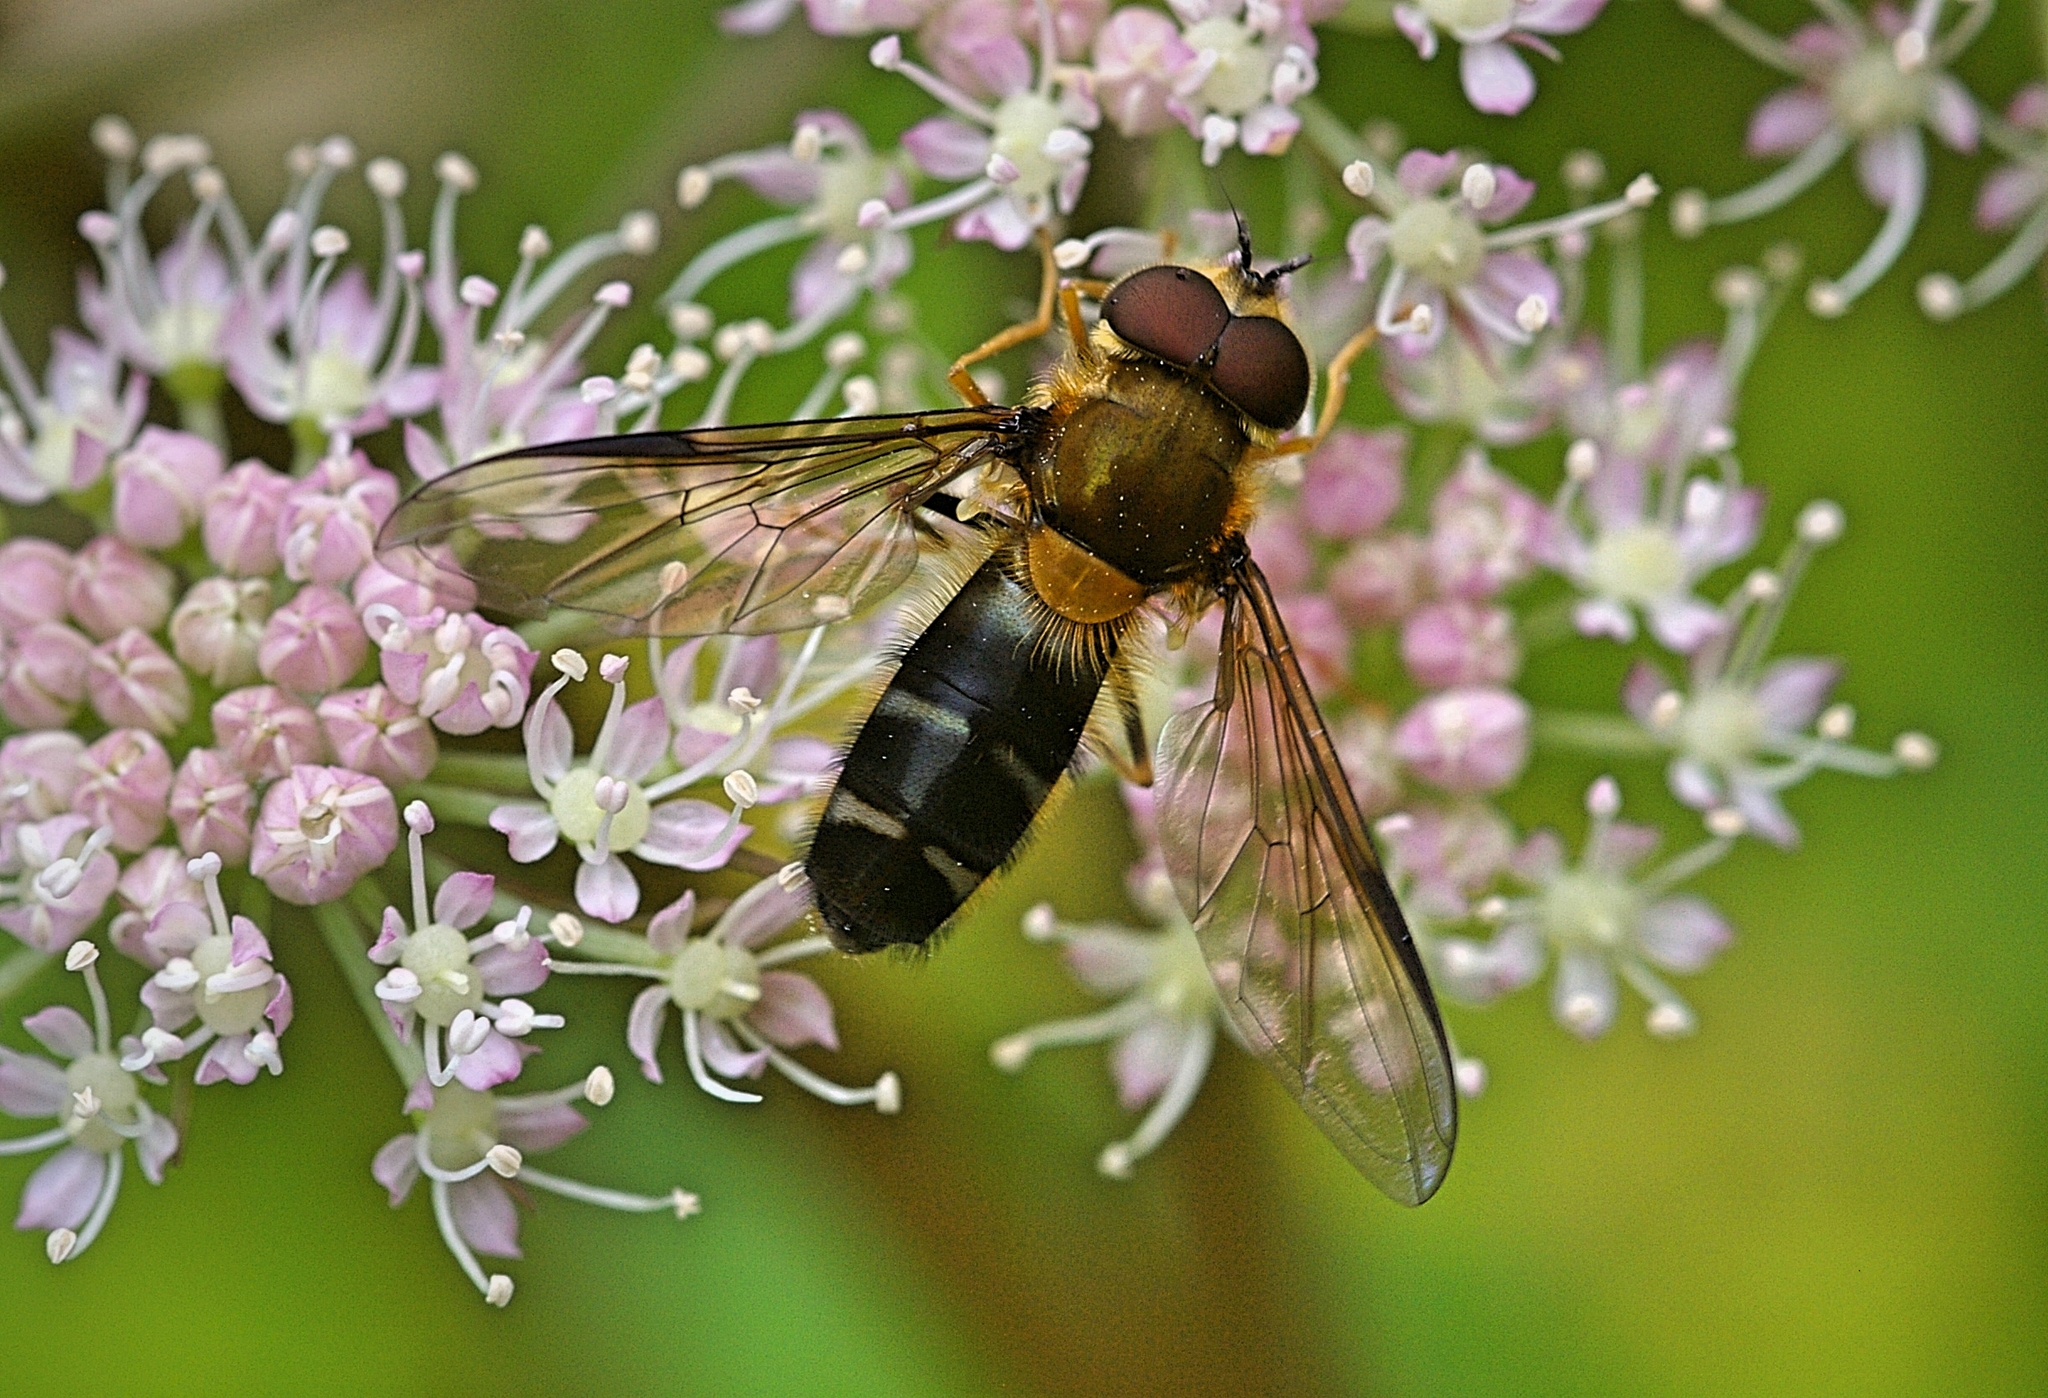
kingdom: Animalia
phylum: Arthropoda
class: Insecta
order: Diptera
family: Syrphidae
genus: Leucozona
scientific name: Leucozona glaucia
